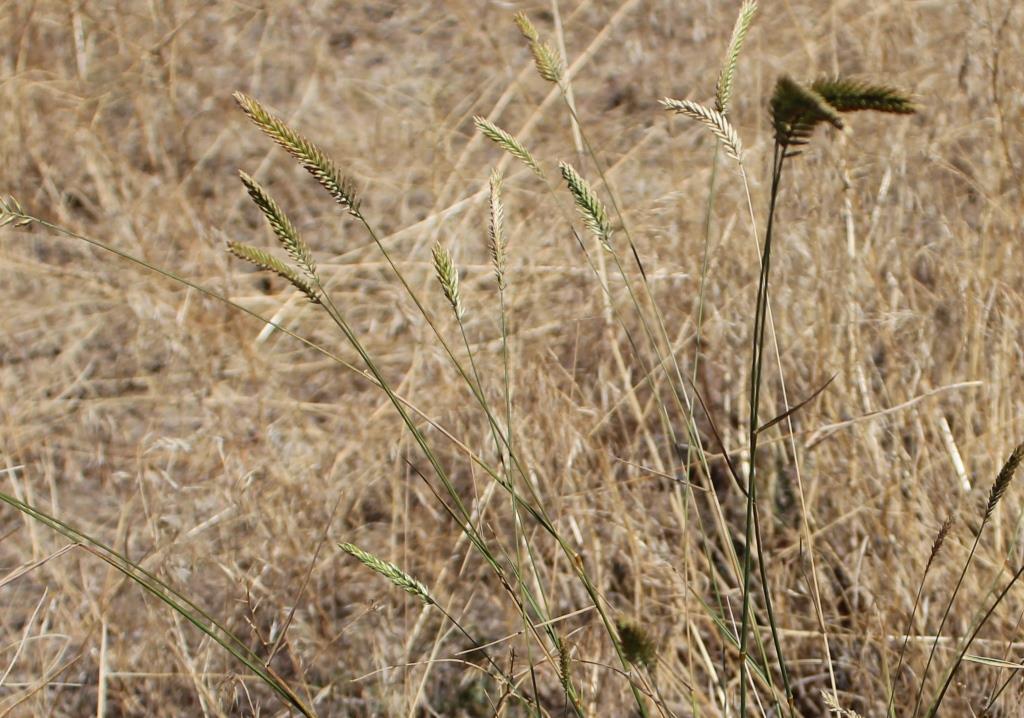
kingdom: Plantae
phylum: Tracheophyta
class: Liliopsida
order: Poales
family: Poaceae
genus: Agropyron
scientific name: Agropyron cristatum
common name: Crested wheatgrass
